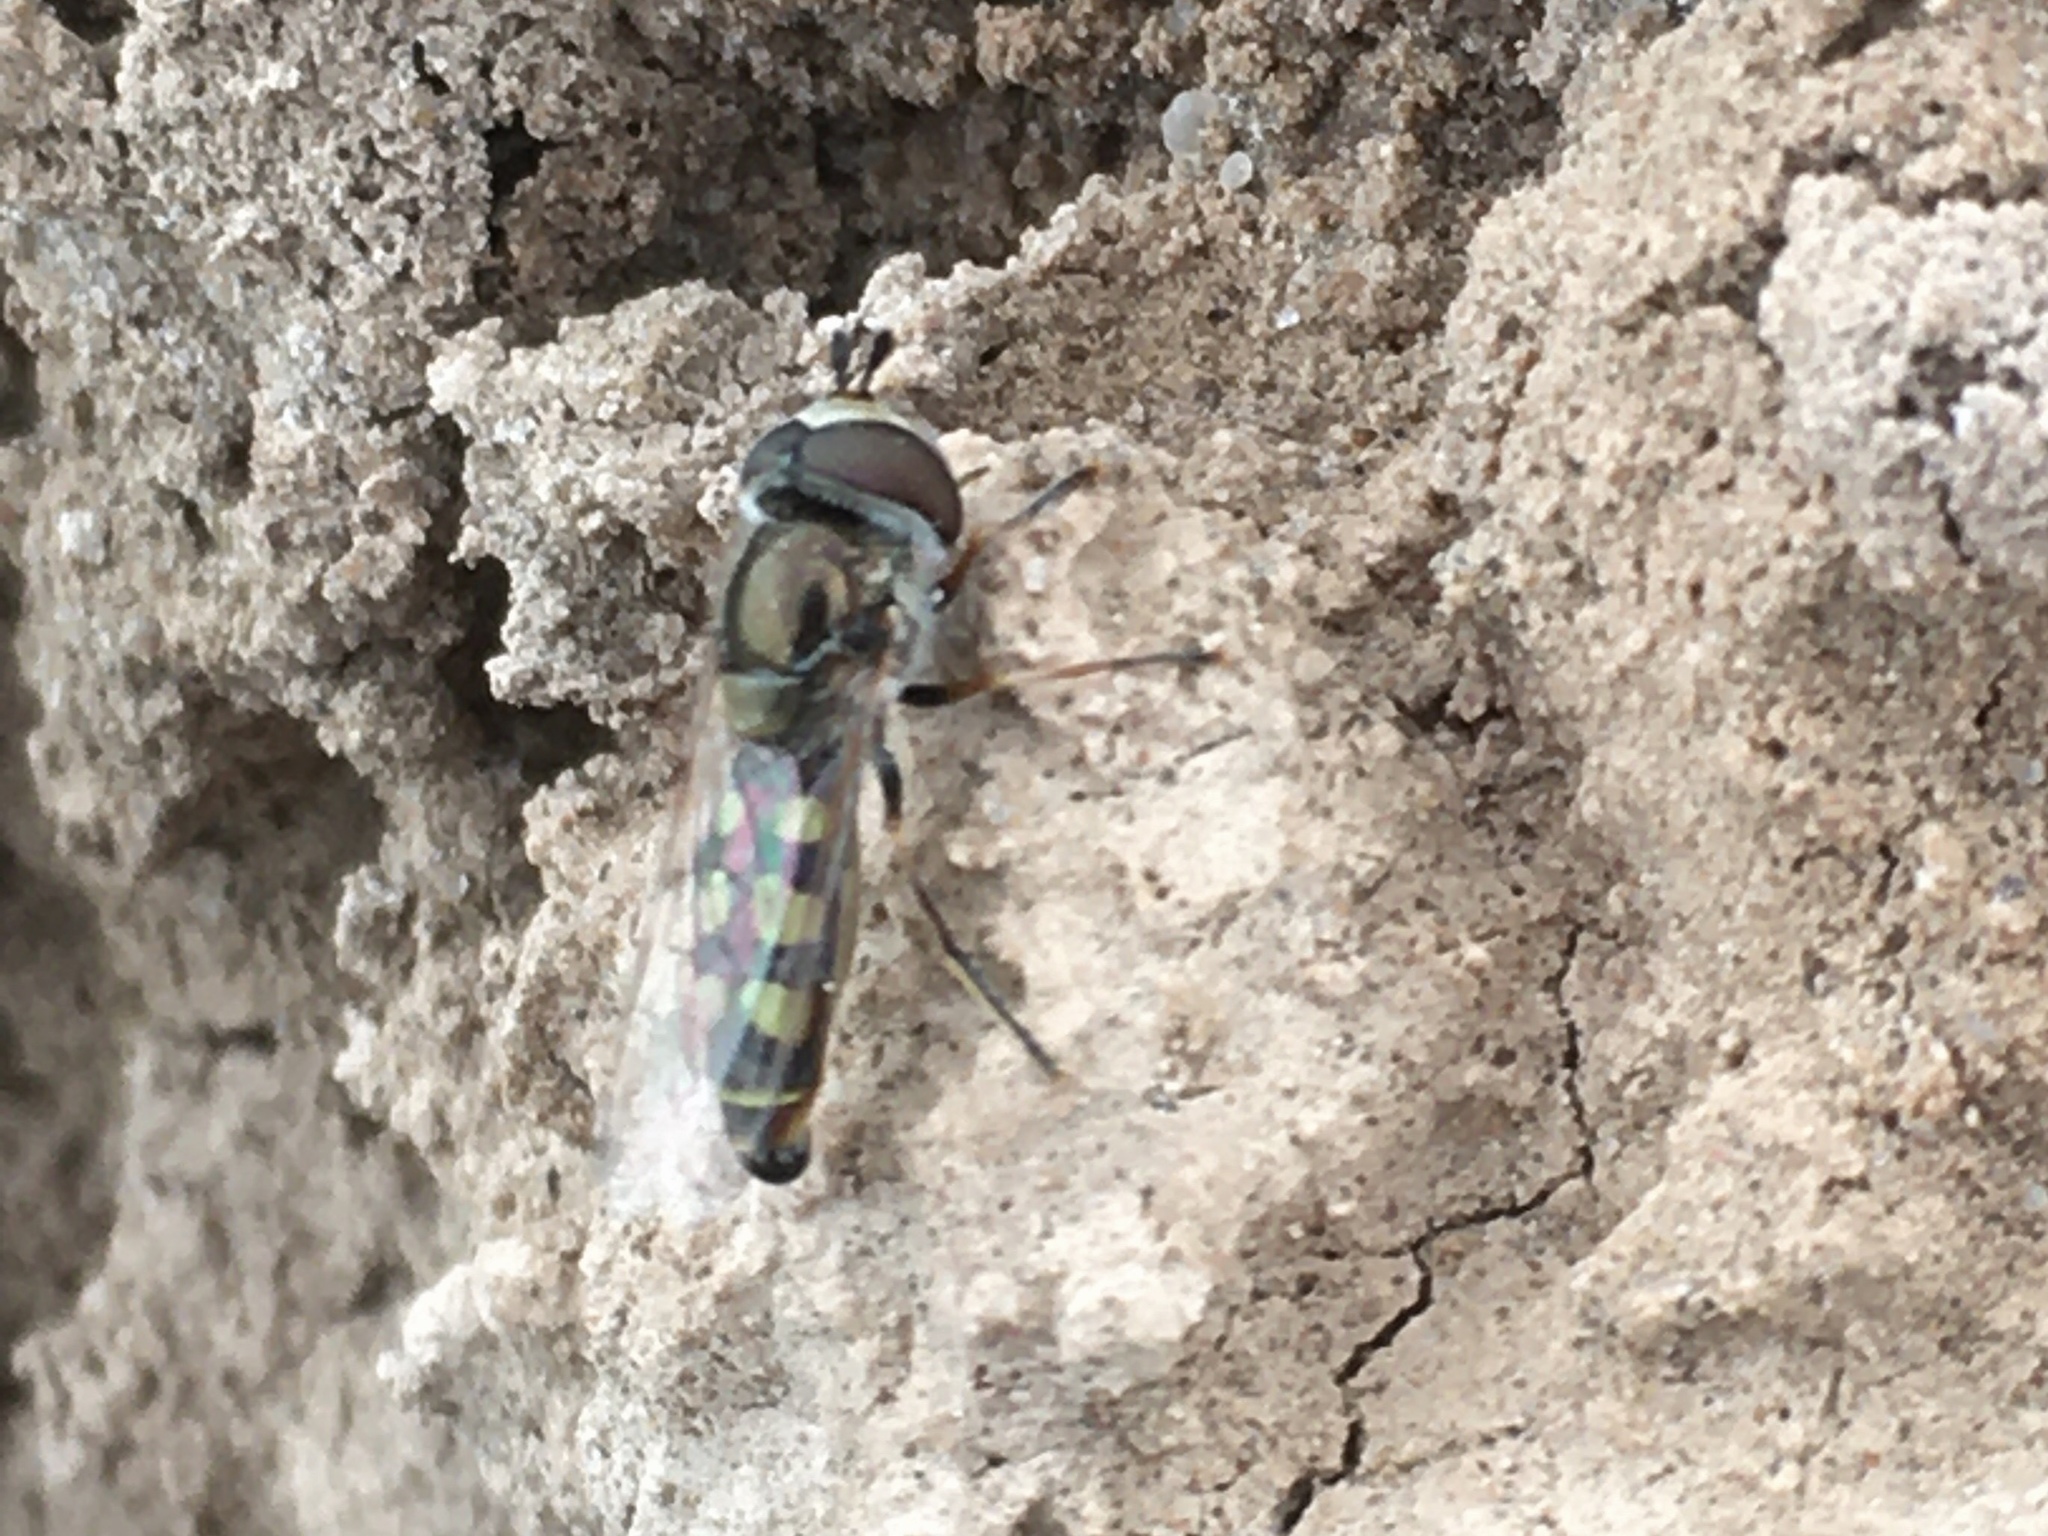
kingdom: Animalia
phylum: Arthropoda
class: Insecta
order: Diptera
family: Syrphidae
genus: Austroscaeva
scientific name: Austroscaeva occidentalis
